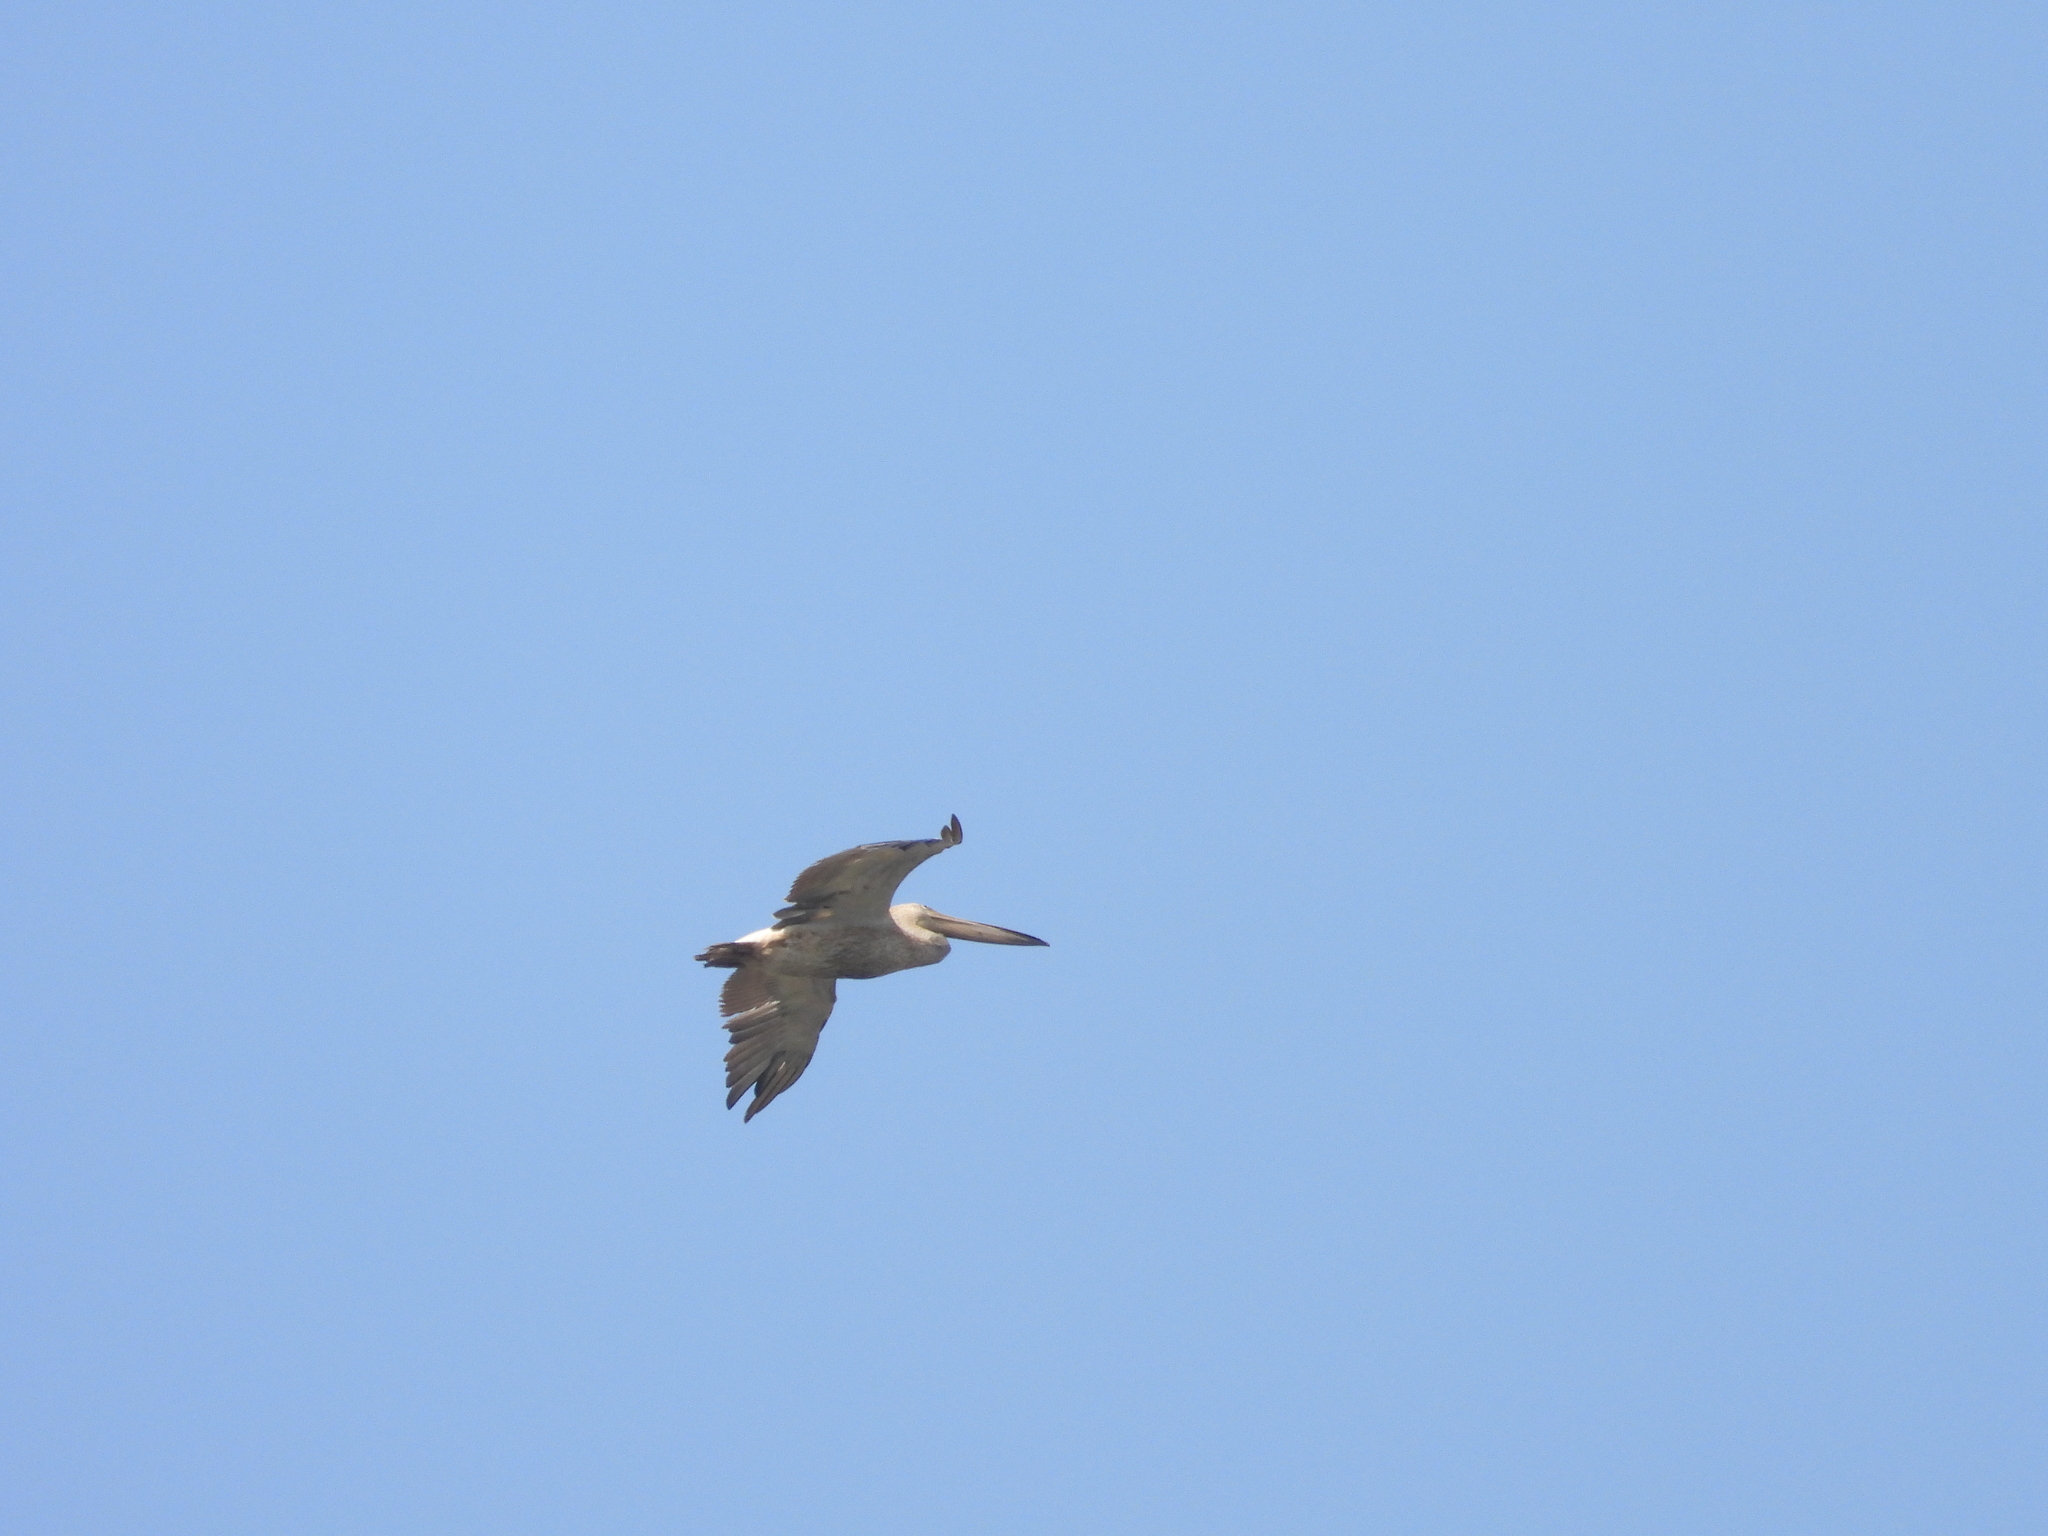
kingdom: Animalia
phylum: Chordata
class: Aves
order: Pelecaniformes
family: Pelecanidae
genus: Pelecanus
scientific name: Pelecanus onocrotalus
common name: Great white pelican
